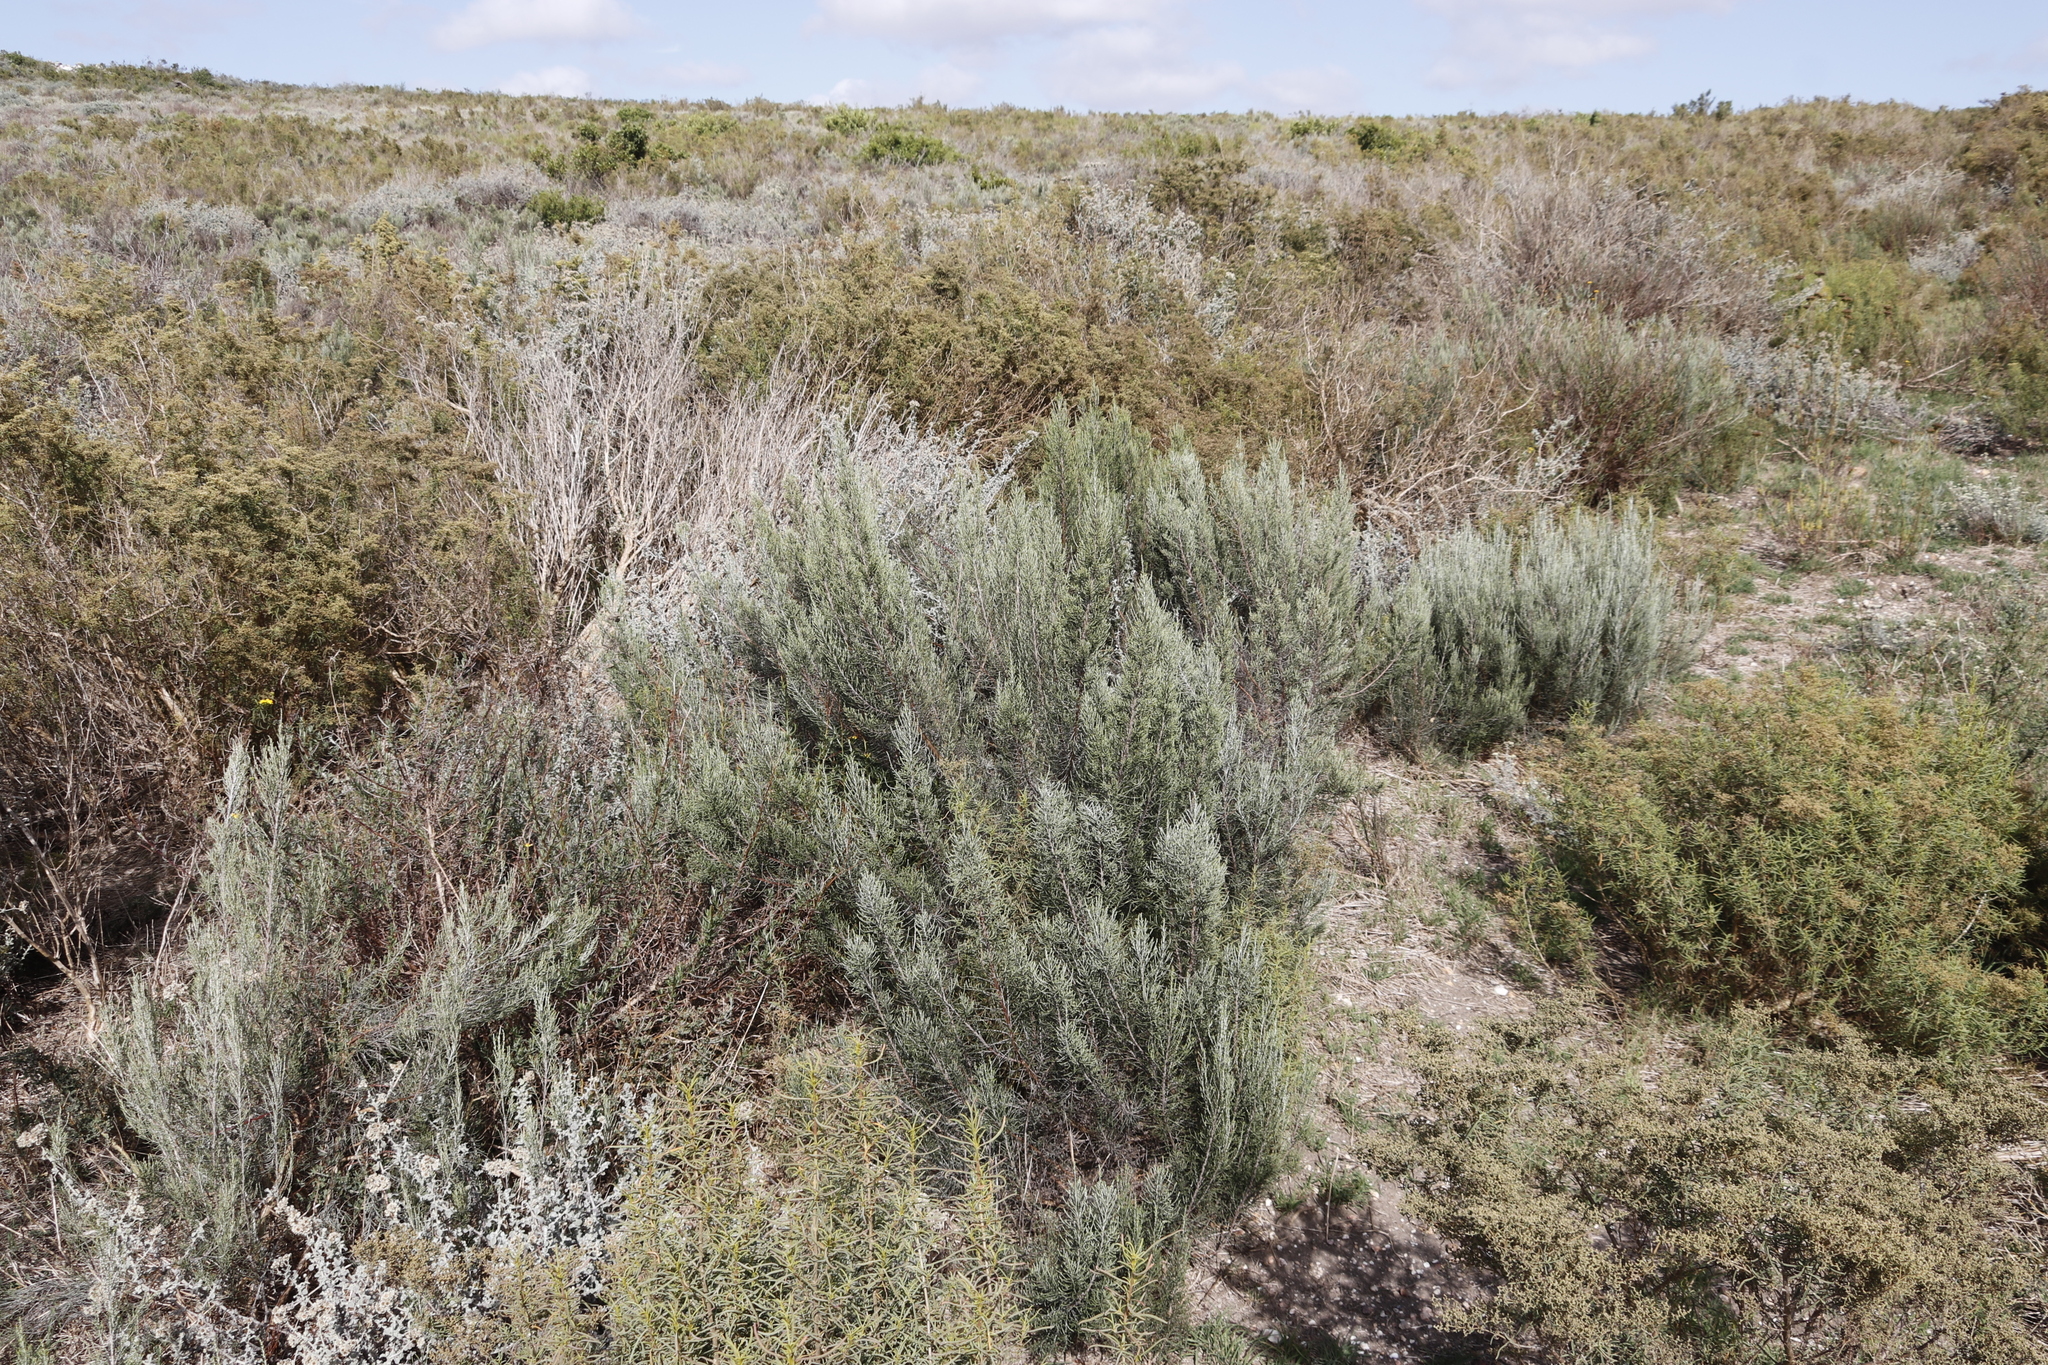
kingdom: Plantae
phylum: Tracheophyta
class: Magnoliopsida
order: Asterales
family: Asteraceae
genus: Dicerothamnus
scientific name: Dicerothamnus rhinocerotis
